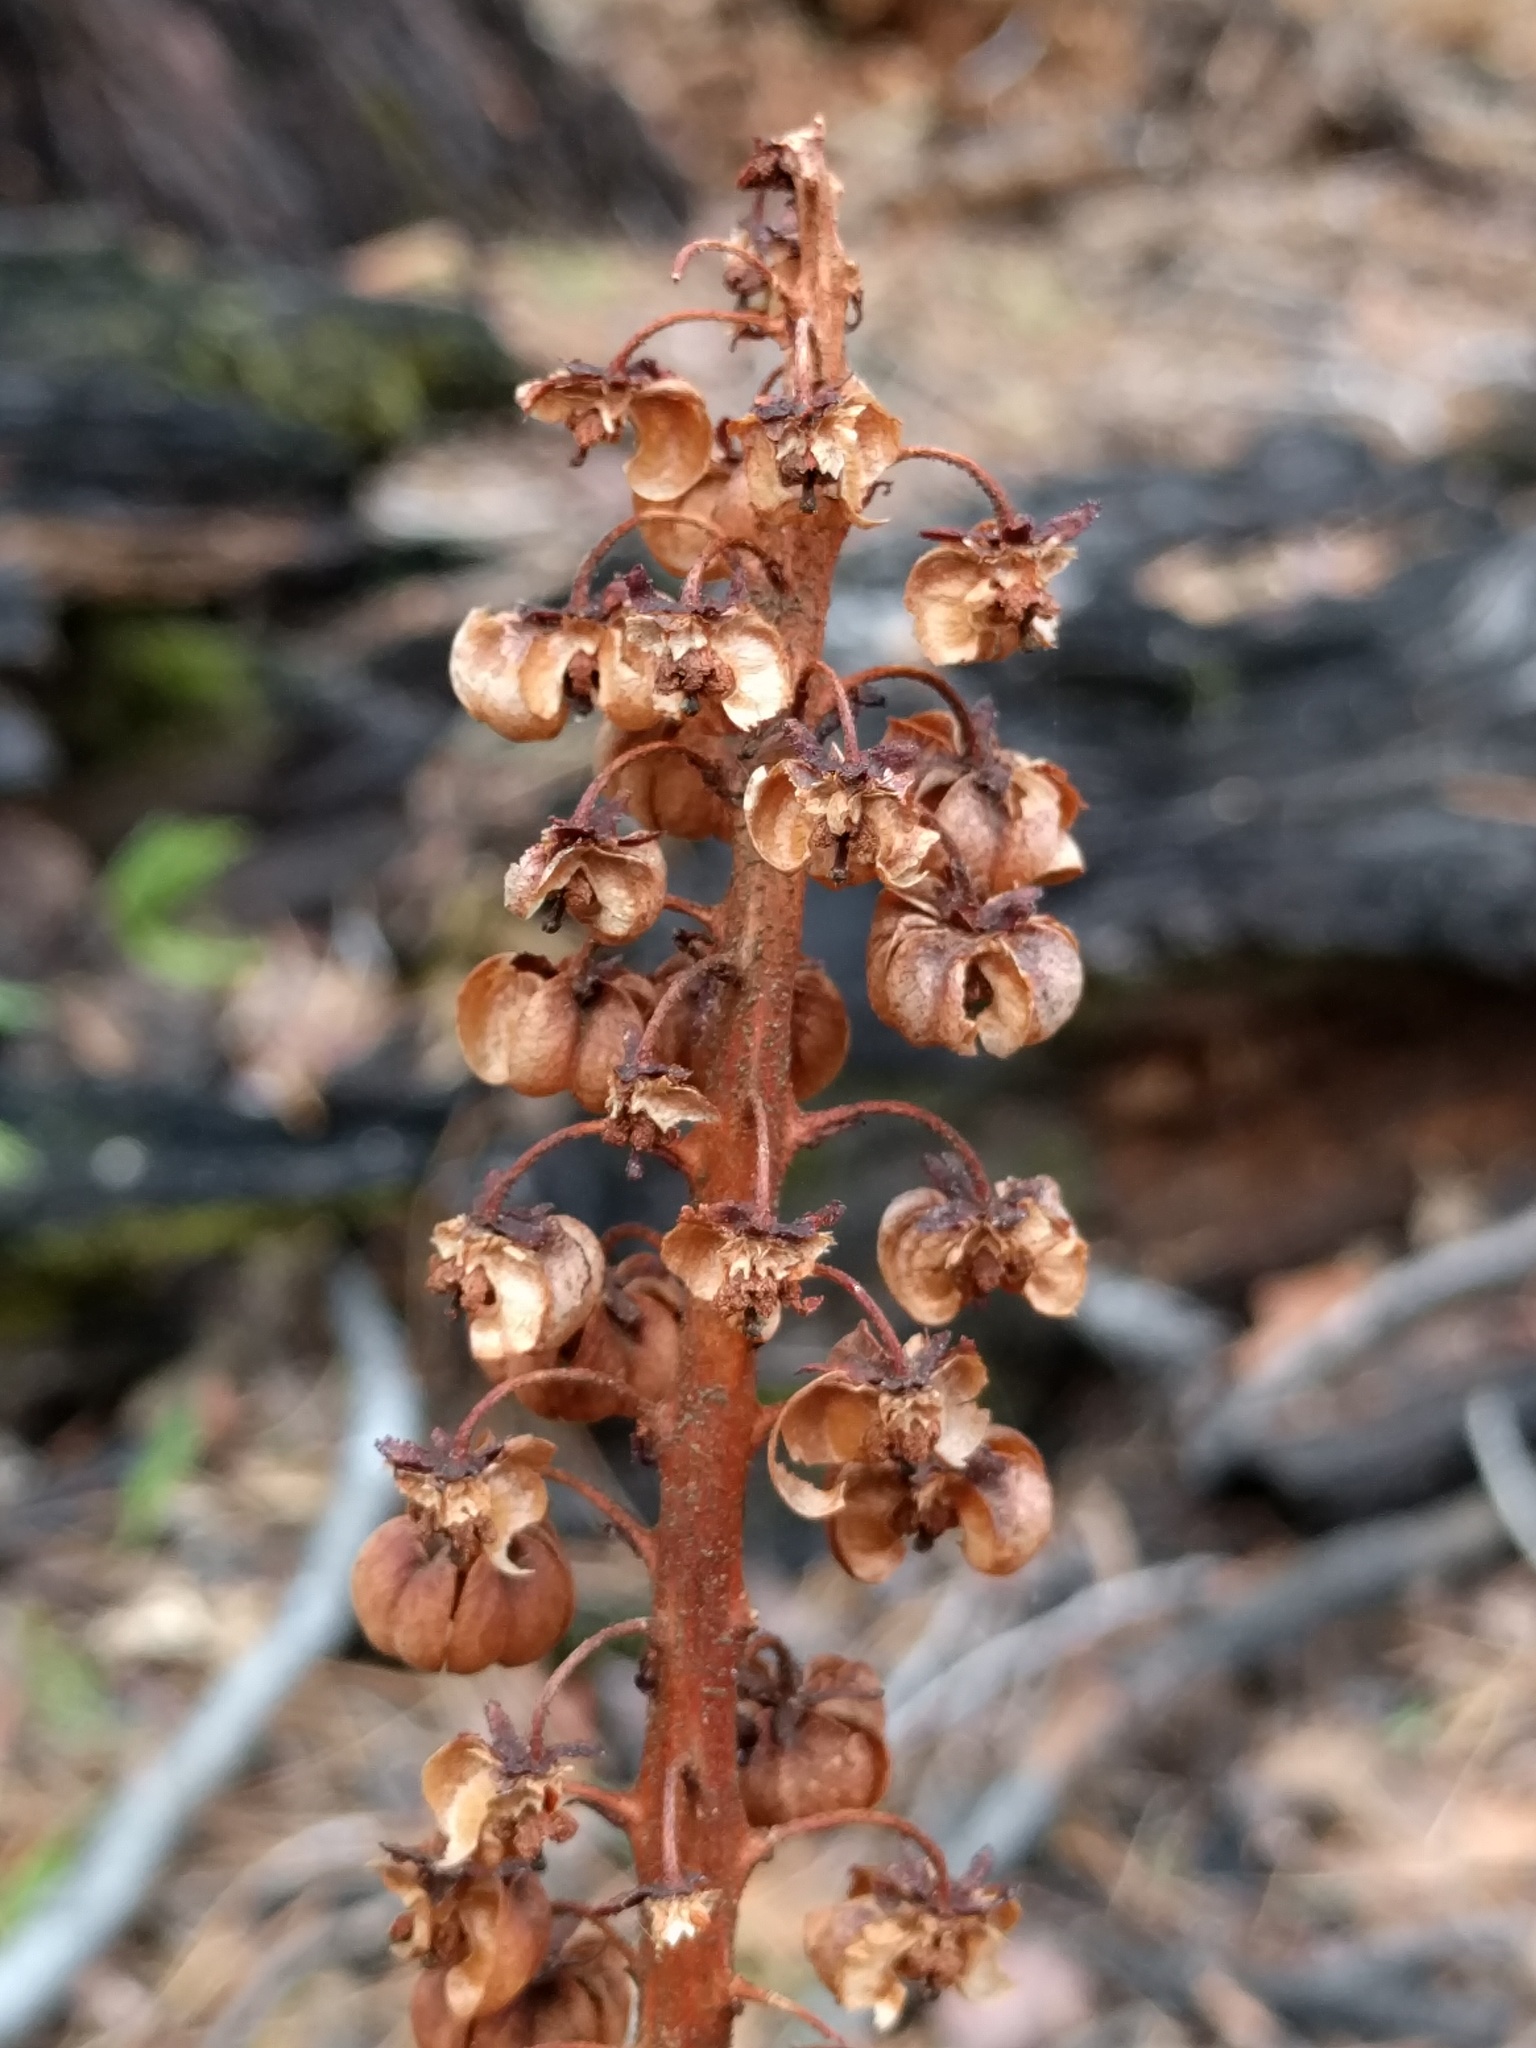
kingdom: Plantae
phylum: Tracheophyta
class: Magnoliopsida
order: Ericales
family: Ericaceae
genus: Pterospora
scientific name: Pterospora andromedea
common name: Giant bird's-nest
